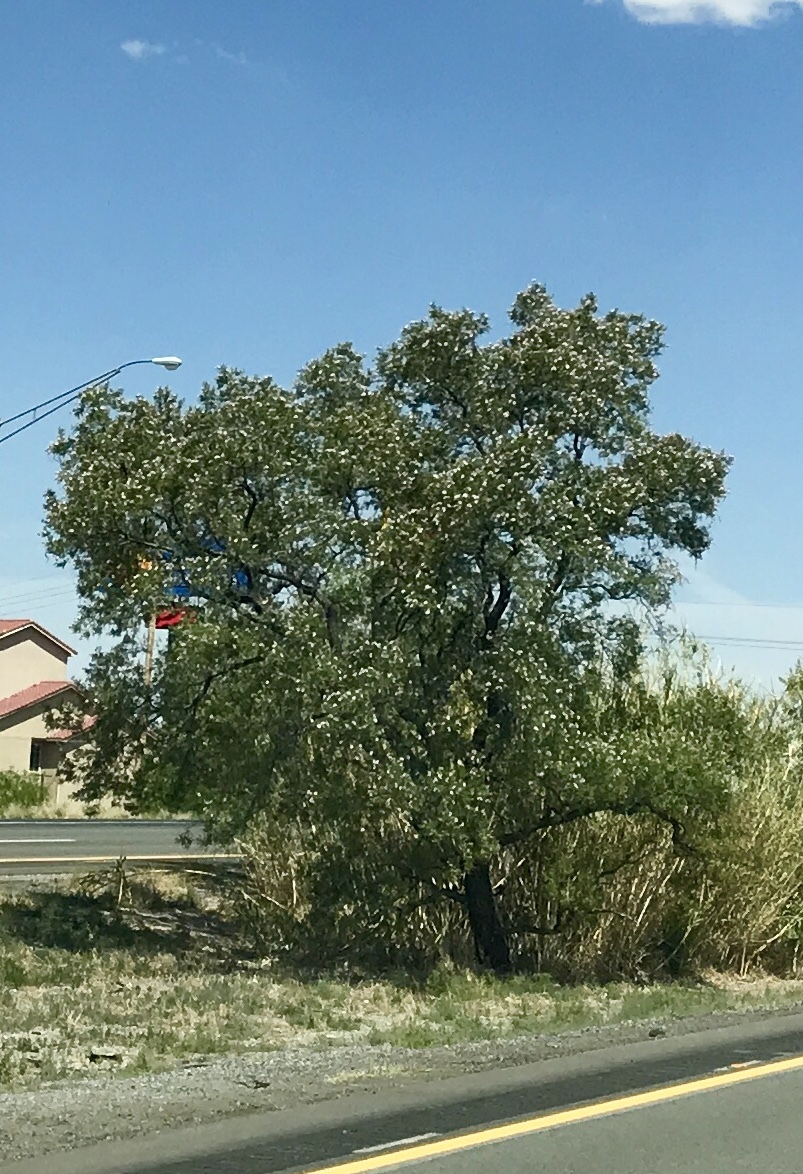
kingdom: Plantae
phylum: Tracheophyta
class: Magnoliopsida
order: Lamiales
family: Bignoniaceae
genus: Chilopsis
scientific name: Chilopsis linearis
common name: Desert-willow
